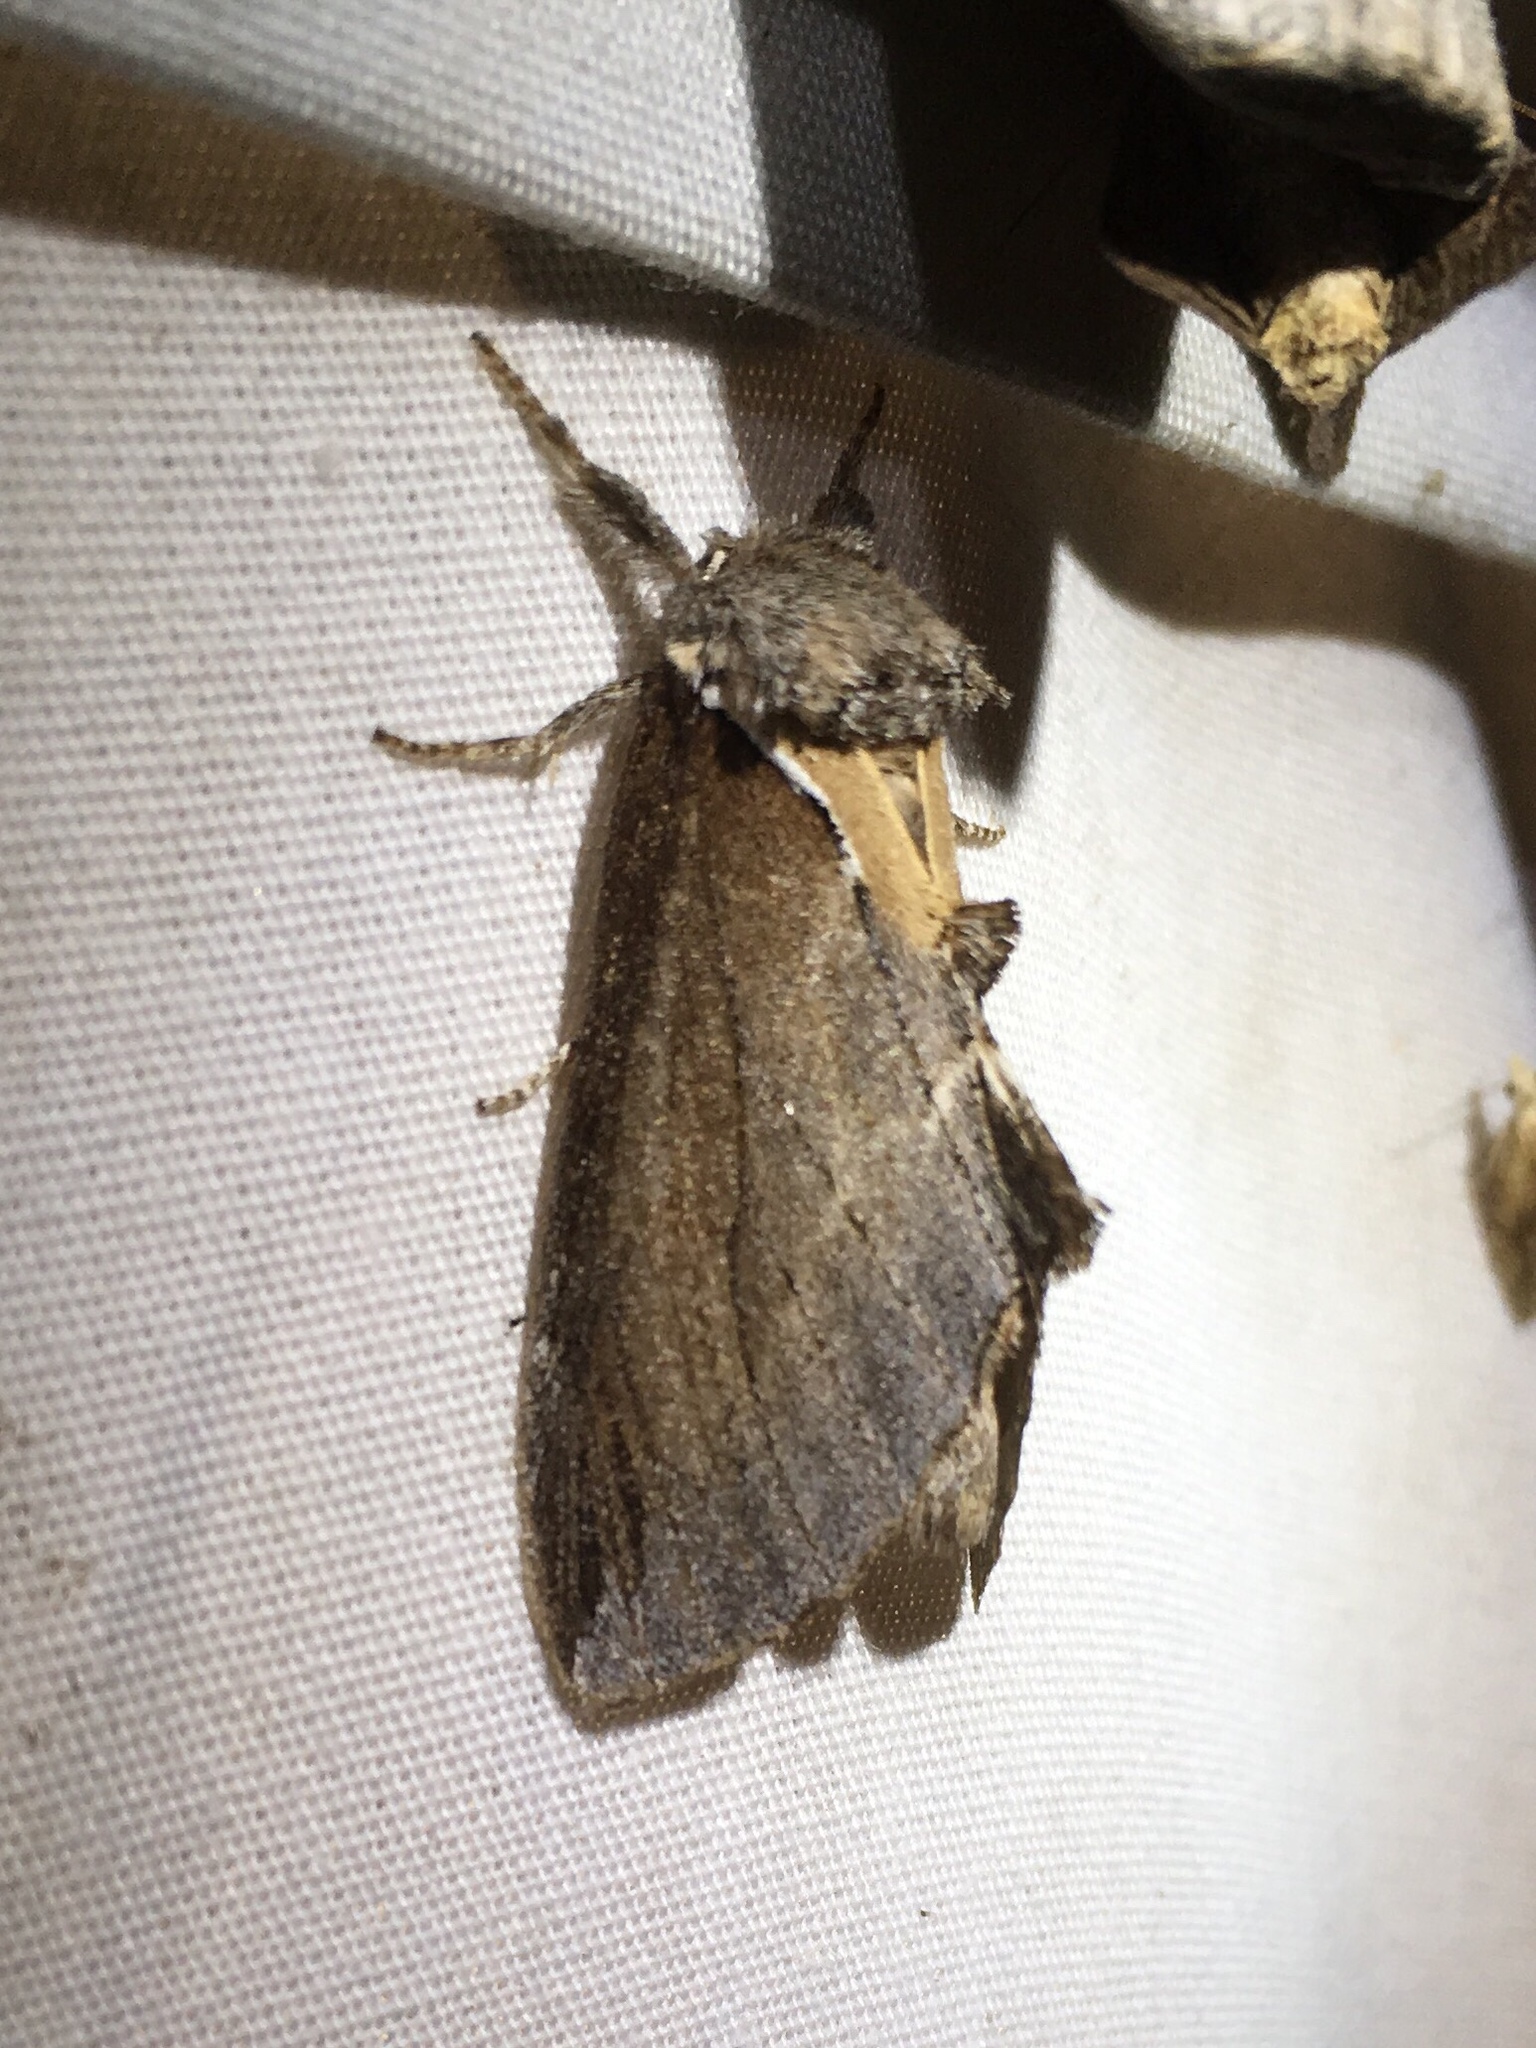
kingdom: Animalia
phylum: Arthropoda
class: Insecta
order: Lepidoptera
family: Notodontidae
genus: Pheosidea
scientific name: Pheosidea elegans
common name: Elegant prominent
